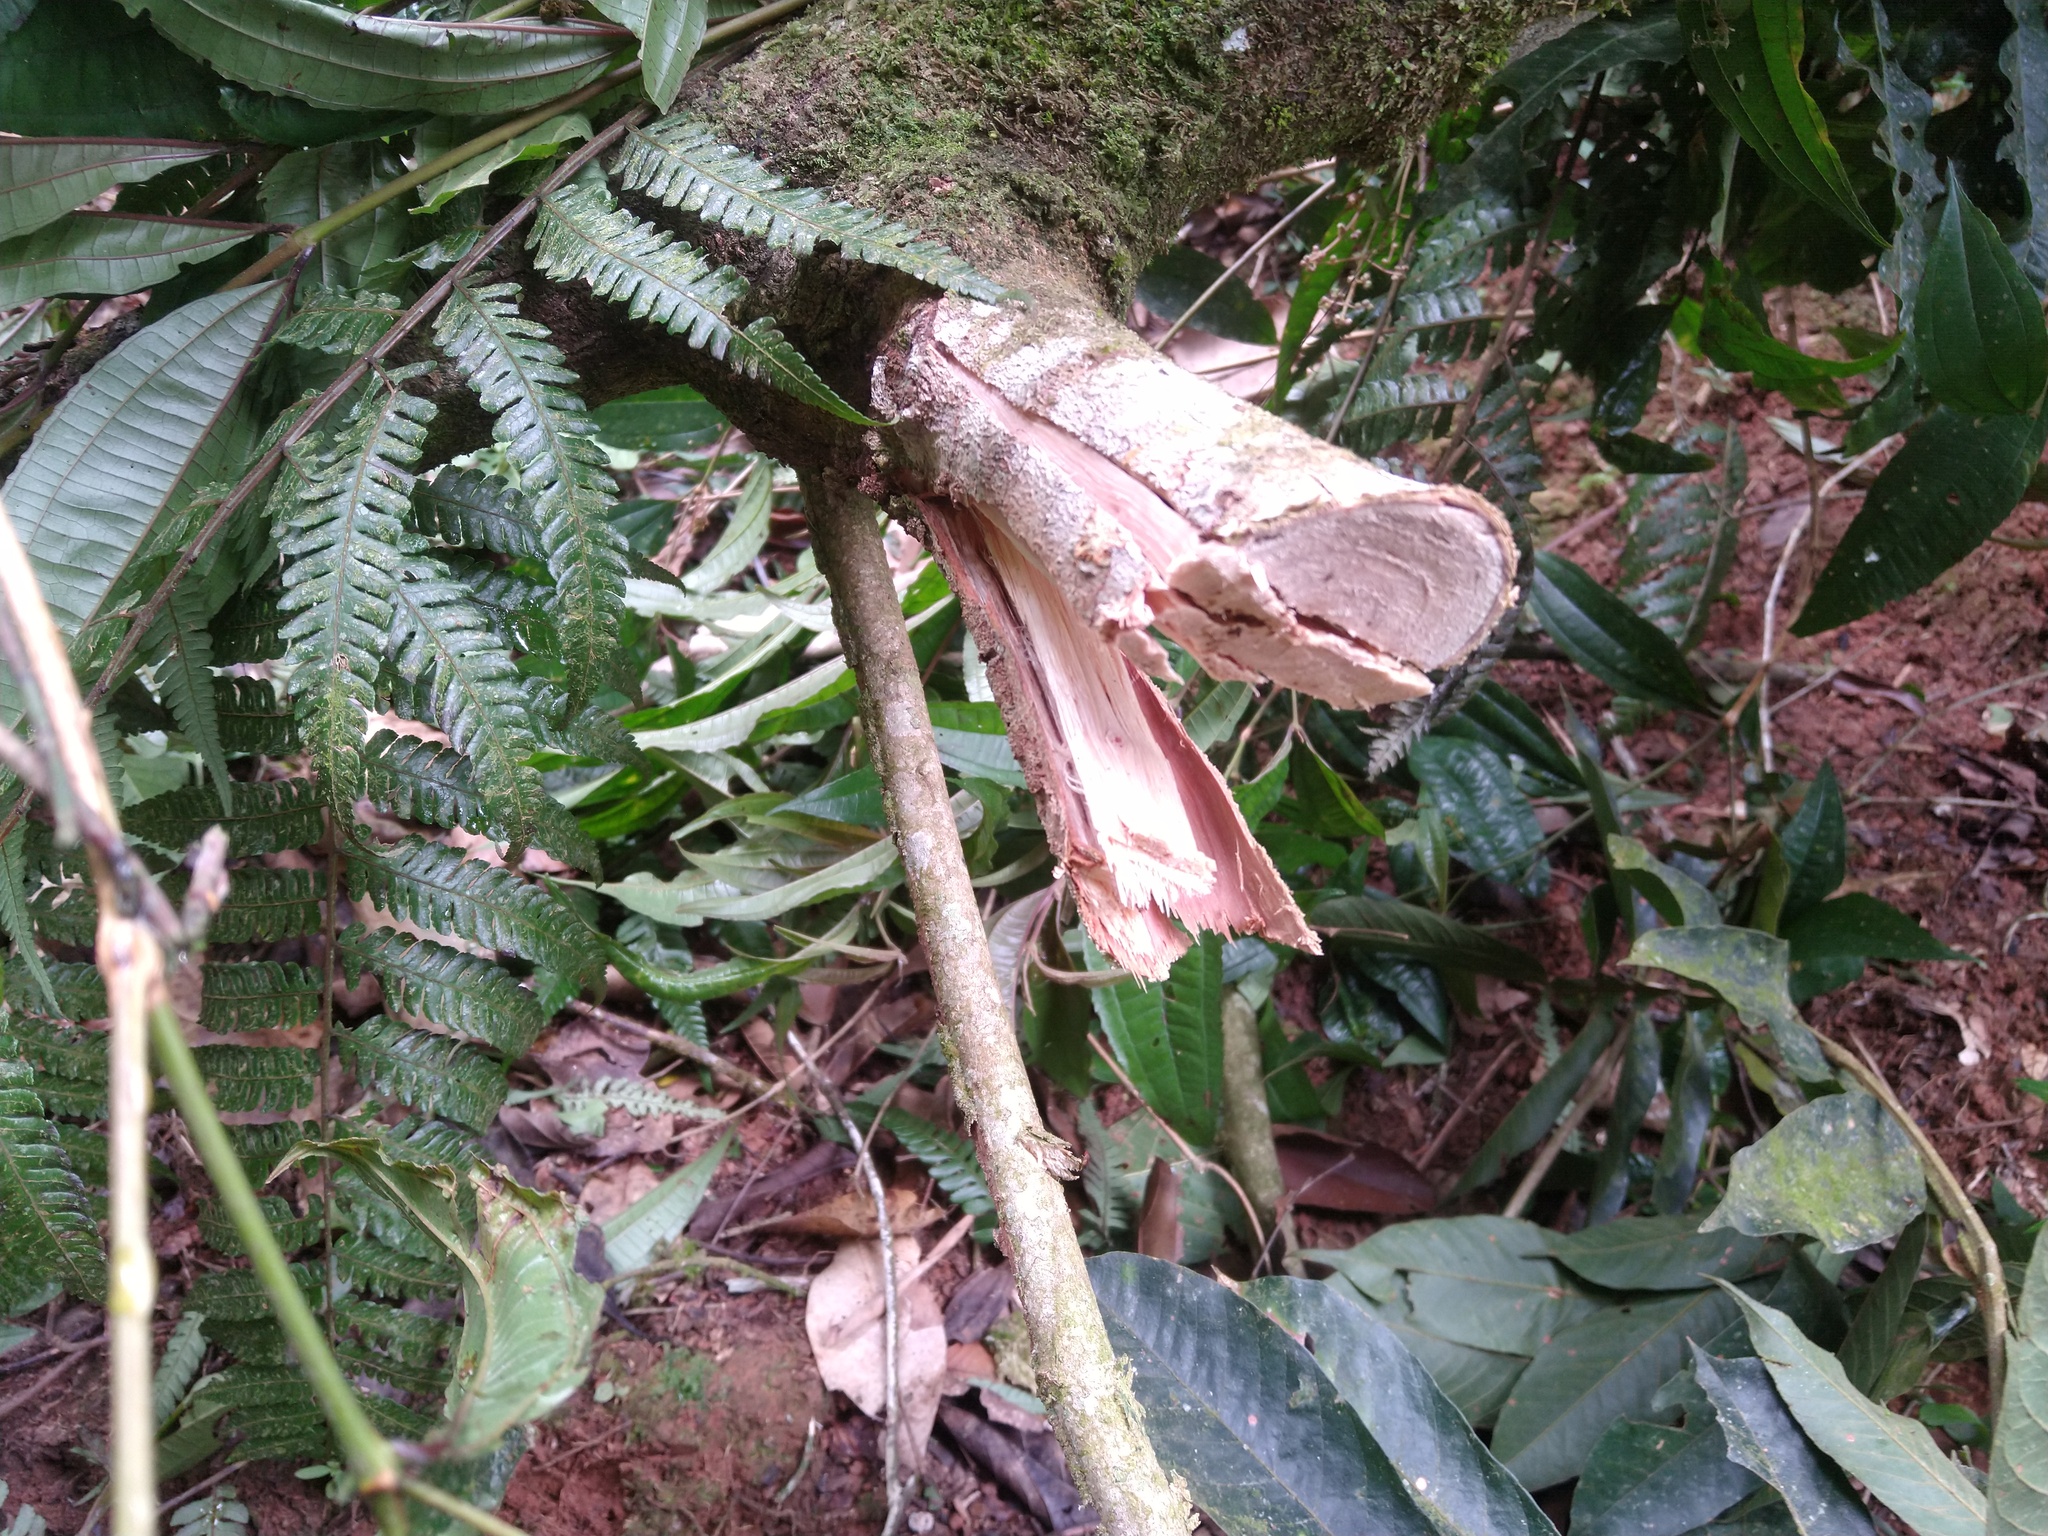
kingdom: Plantae
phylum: Tracheophyta
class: Magnoliopsida
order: Fabales
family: Fabaceae
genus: Inga
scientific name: Inga edulis
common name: Ice cream bean
